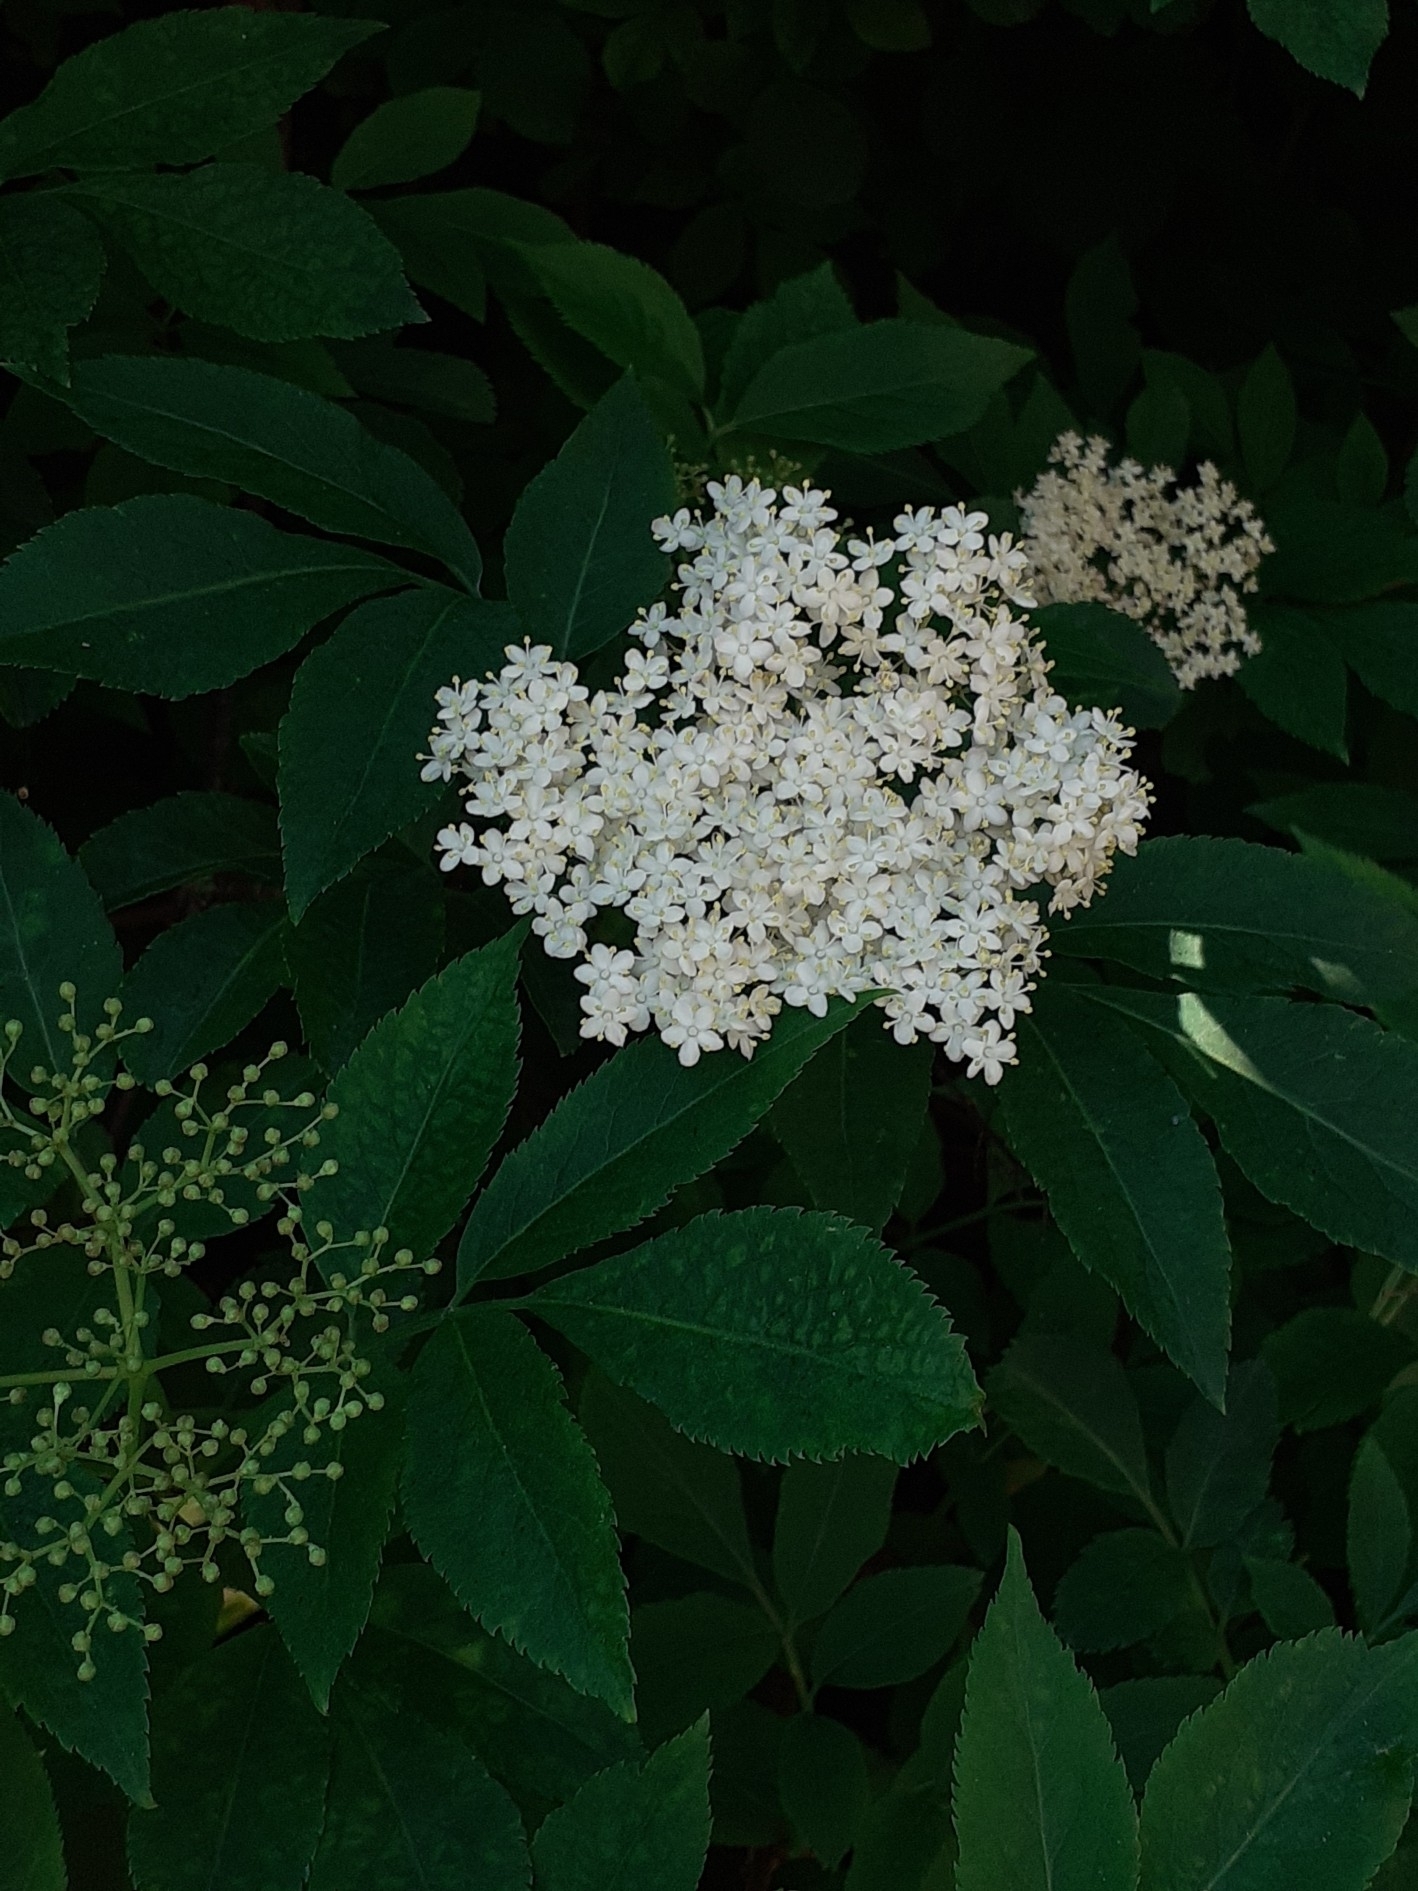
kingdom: Plantae
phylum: Tracheophyta
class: Magnoliopsida
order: Dipsacales
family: Viburnaceae
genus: Sambucus
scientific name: Sambucus nigra
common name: Elder
